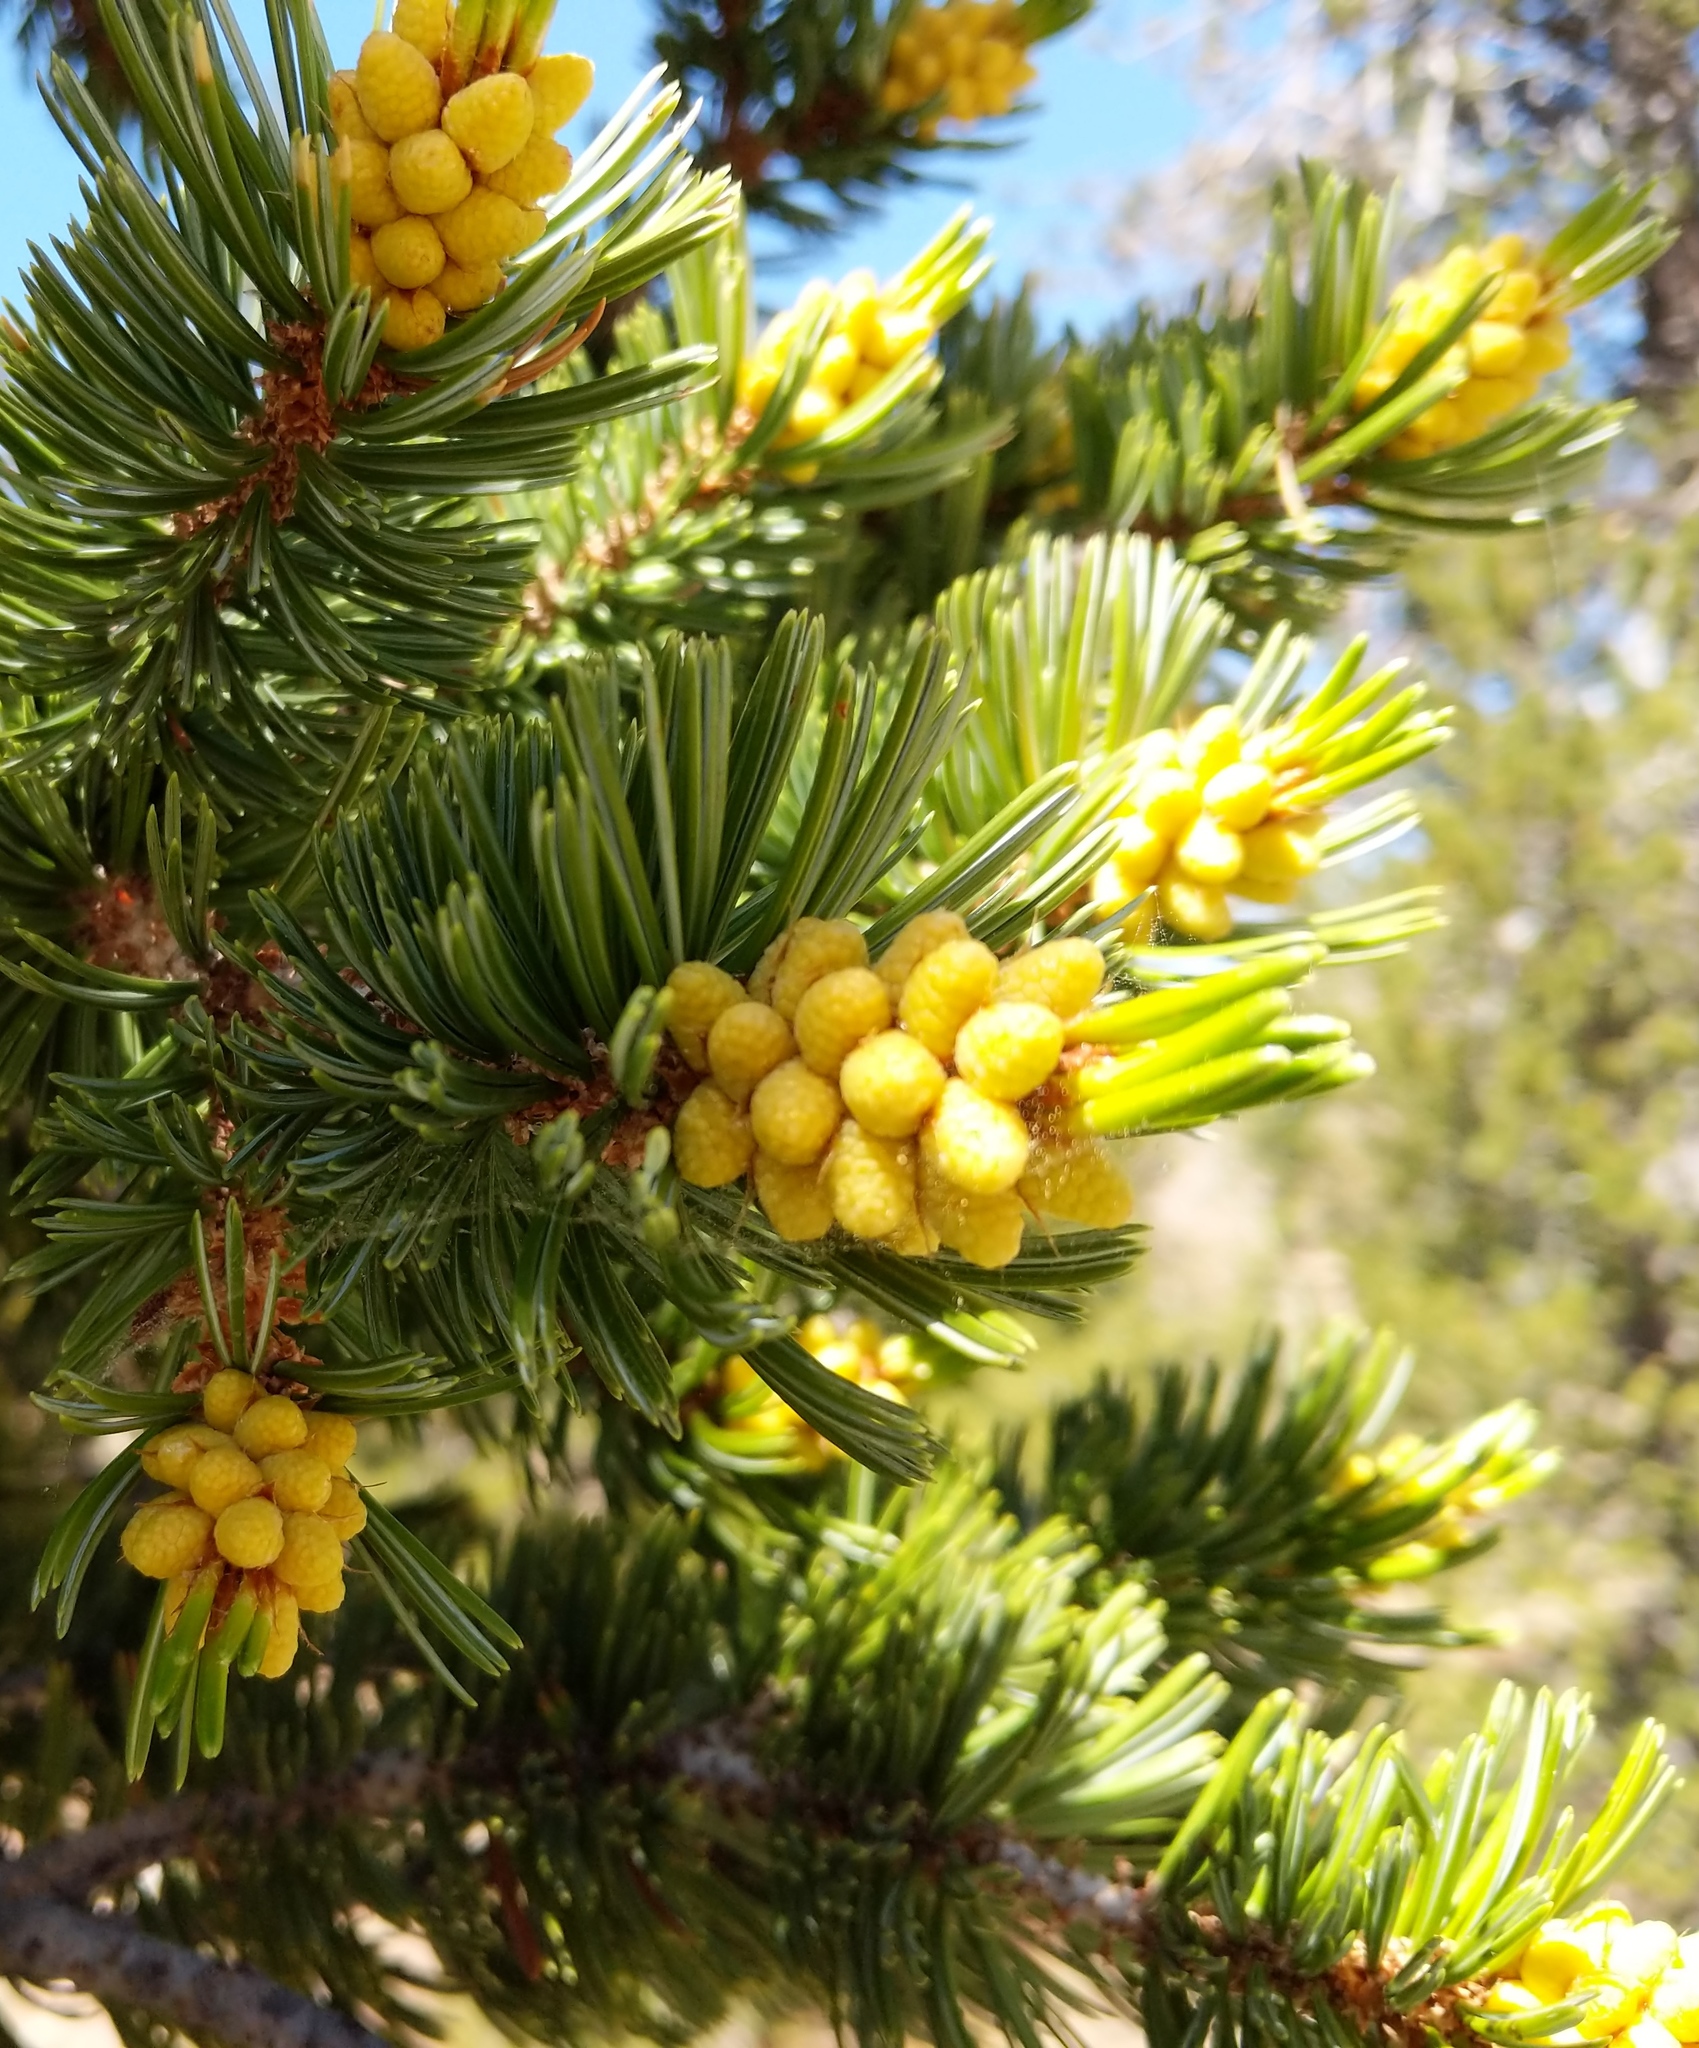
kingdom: Plantae
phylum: Tracheophyta
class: Pinopsida
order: Pinales
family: Pinaceae
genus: Pinus
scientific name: Pinus balfouriana
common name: Foxtail pine
